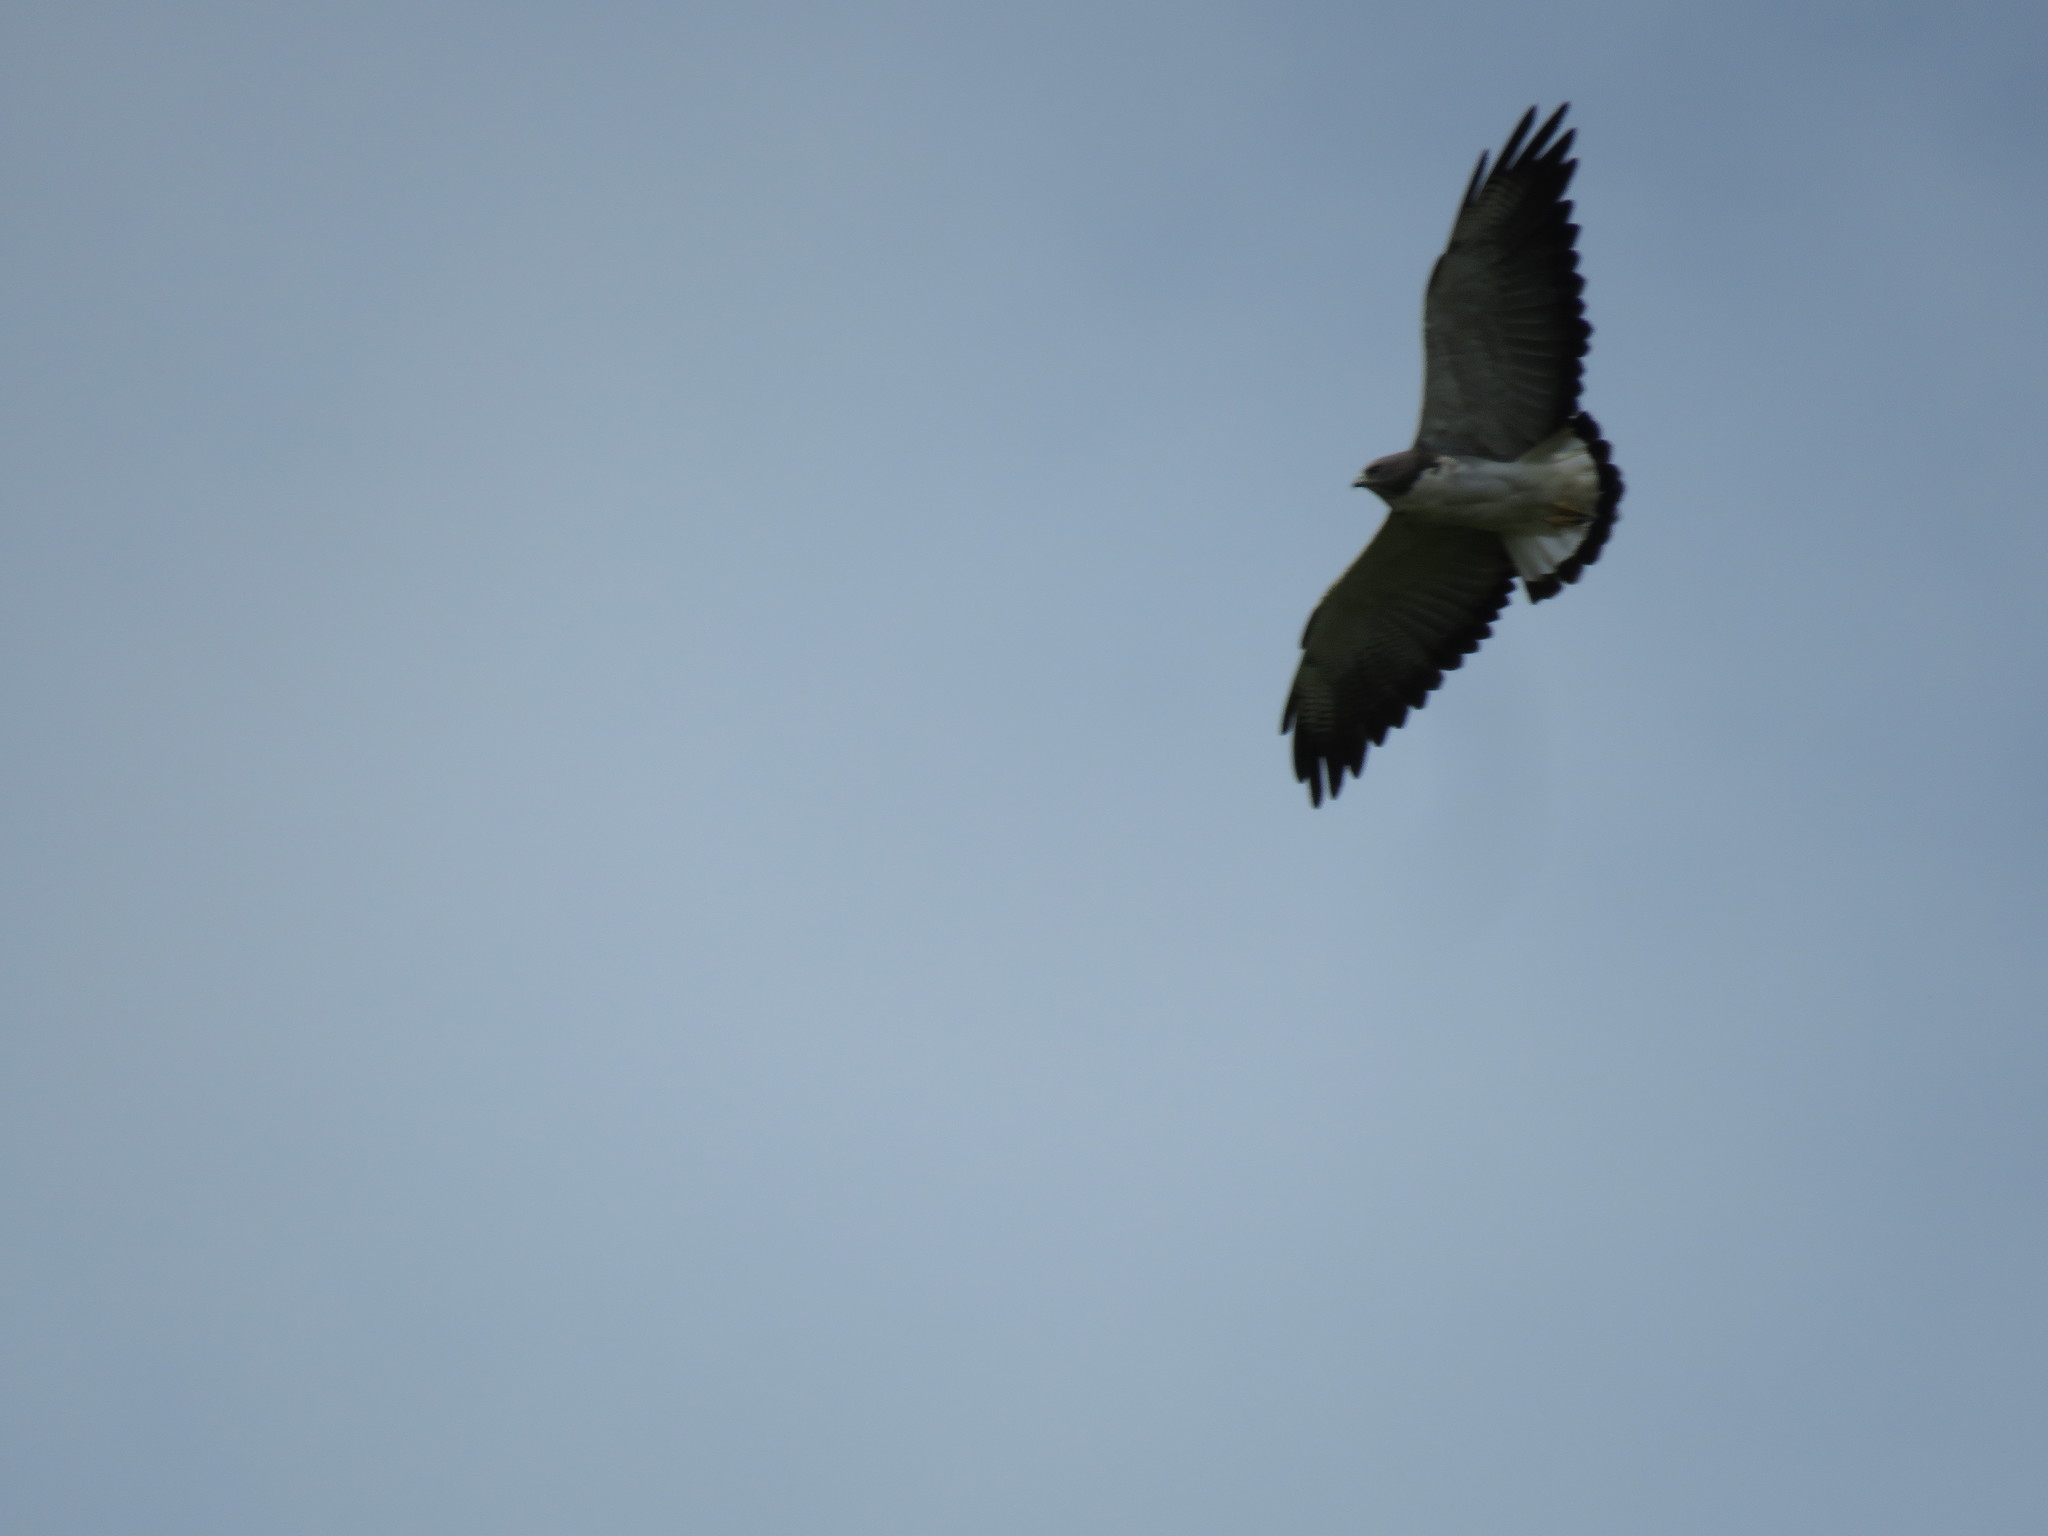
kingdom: Animalia
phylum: Chordata
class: Aves
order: Accipitriformes
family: Accipitridae
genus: Buteo
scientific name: Buteo albicaudatus
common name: White-tailed hawk
